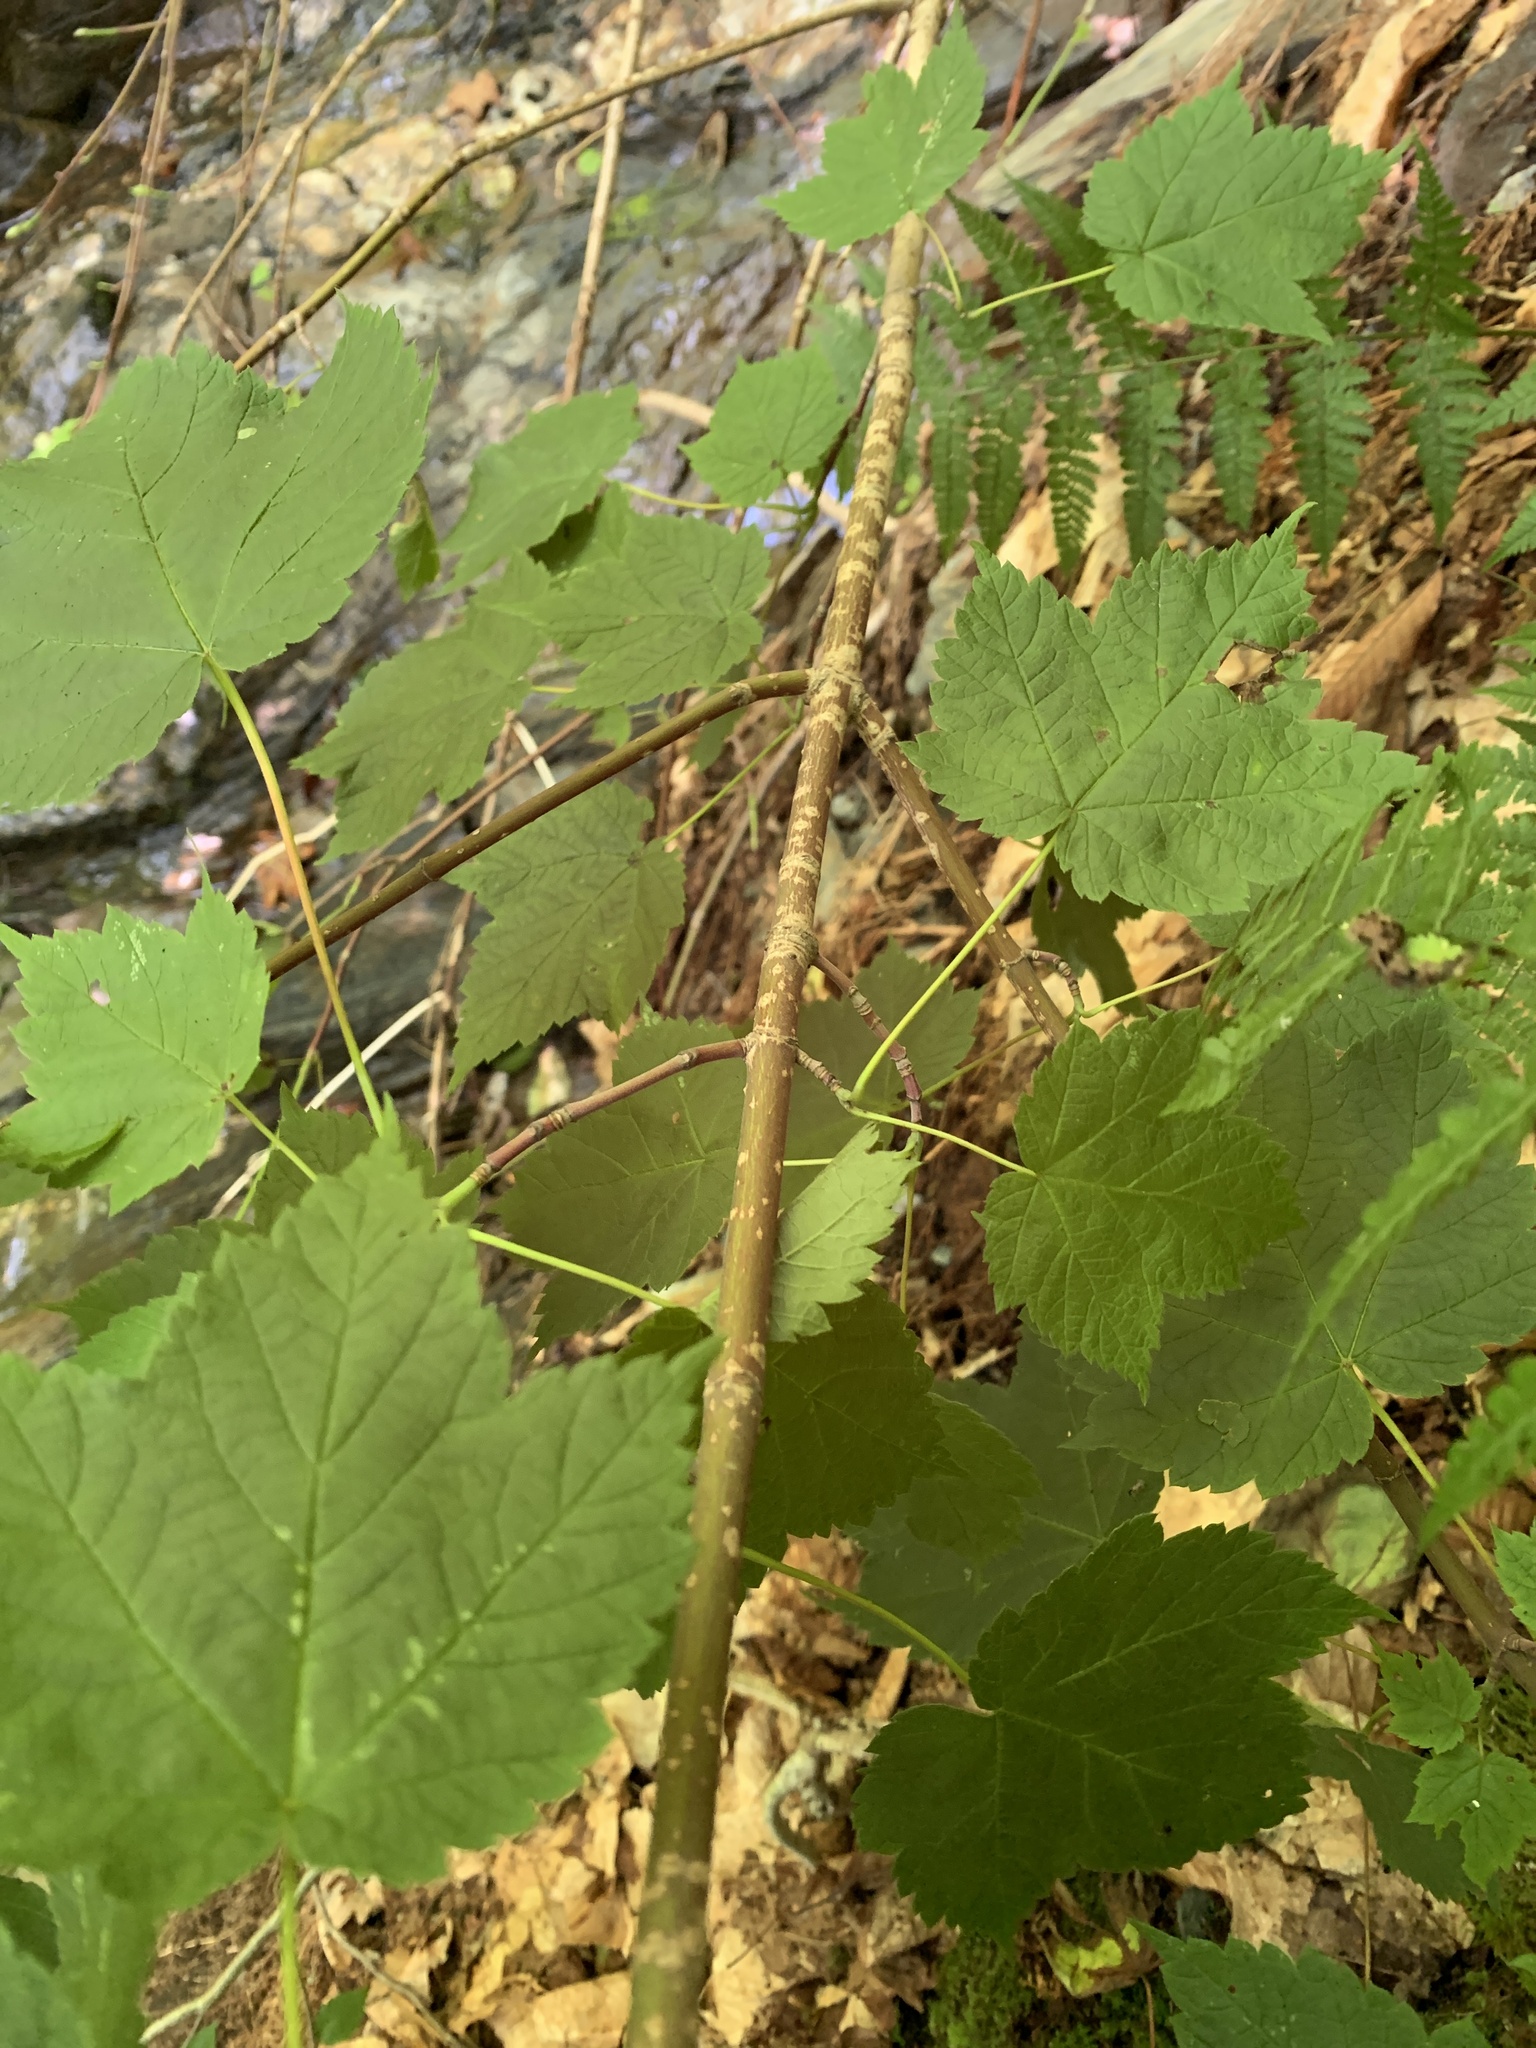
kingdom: Plantae
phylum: Tracheophyta
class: Magnoliopsida
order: Sapindales
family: Sapindaceae
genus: Acer
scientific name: Acer spicatum
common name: Mountain maple
